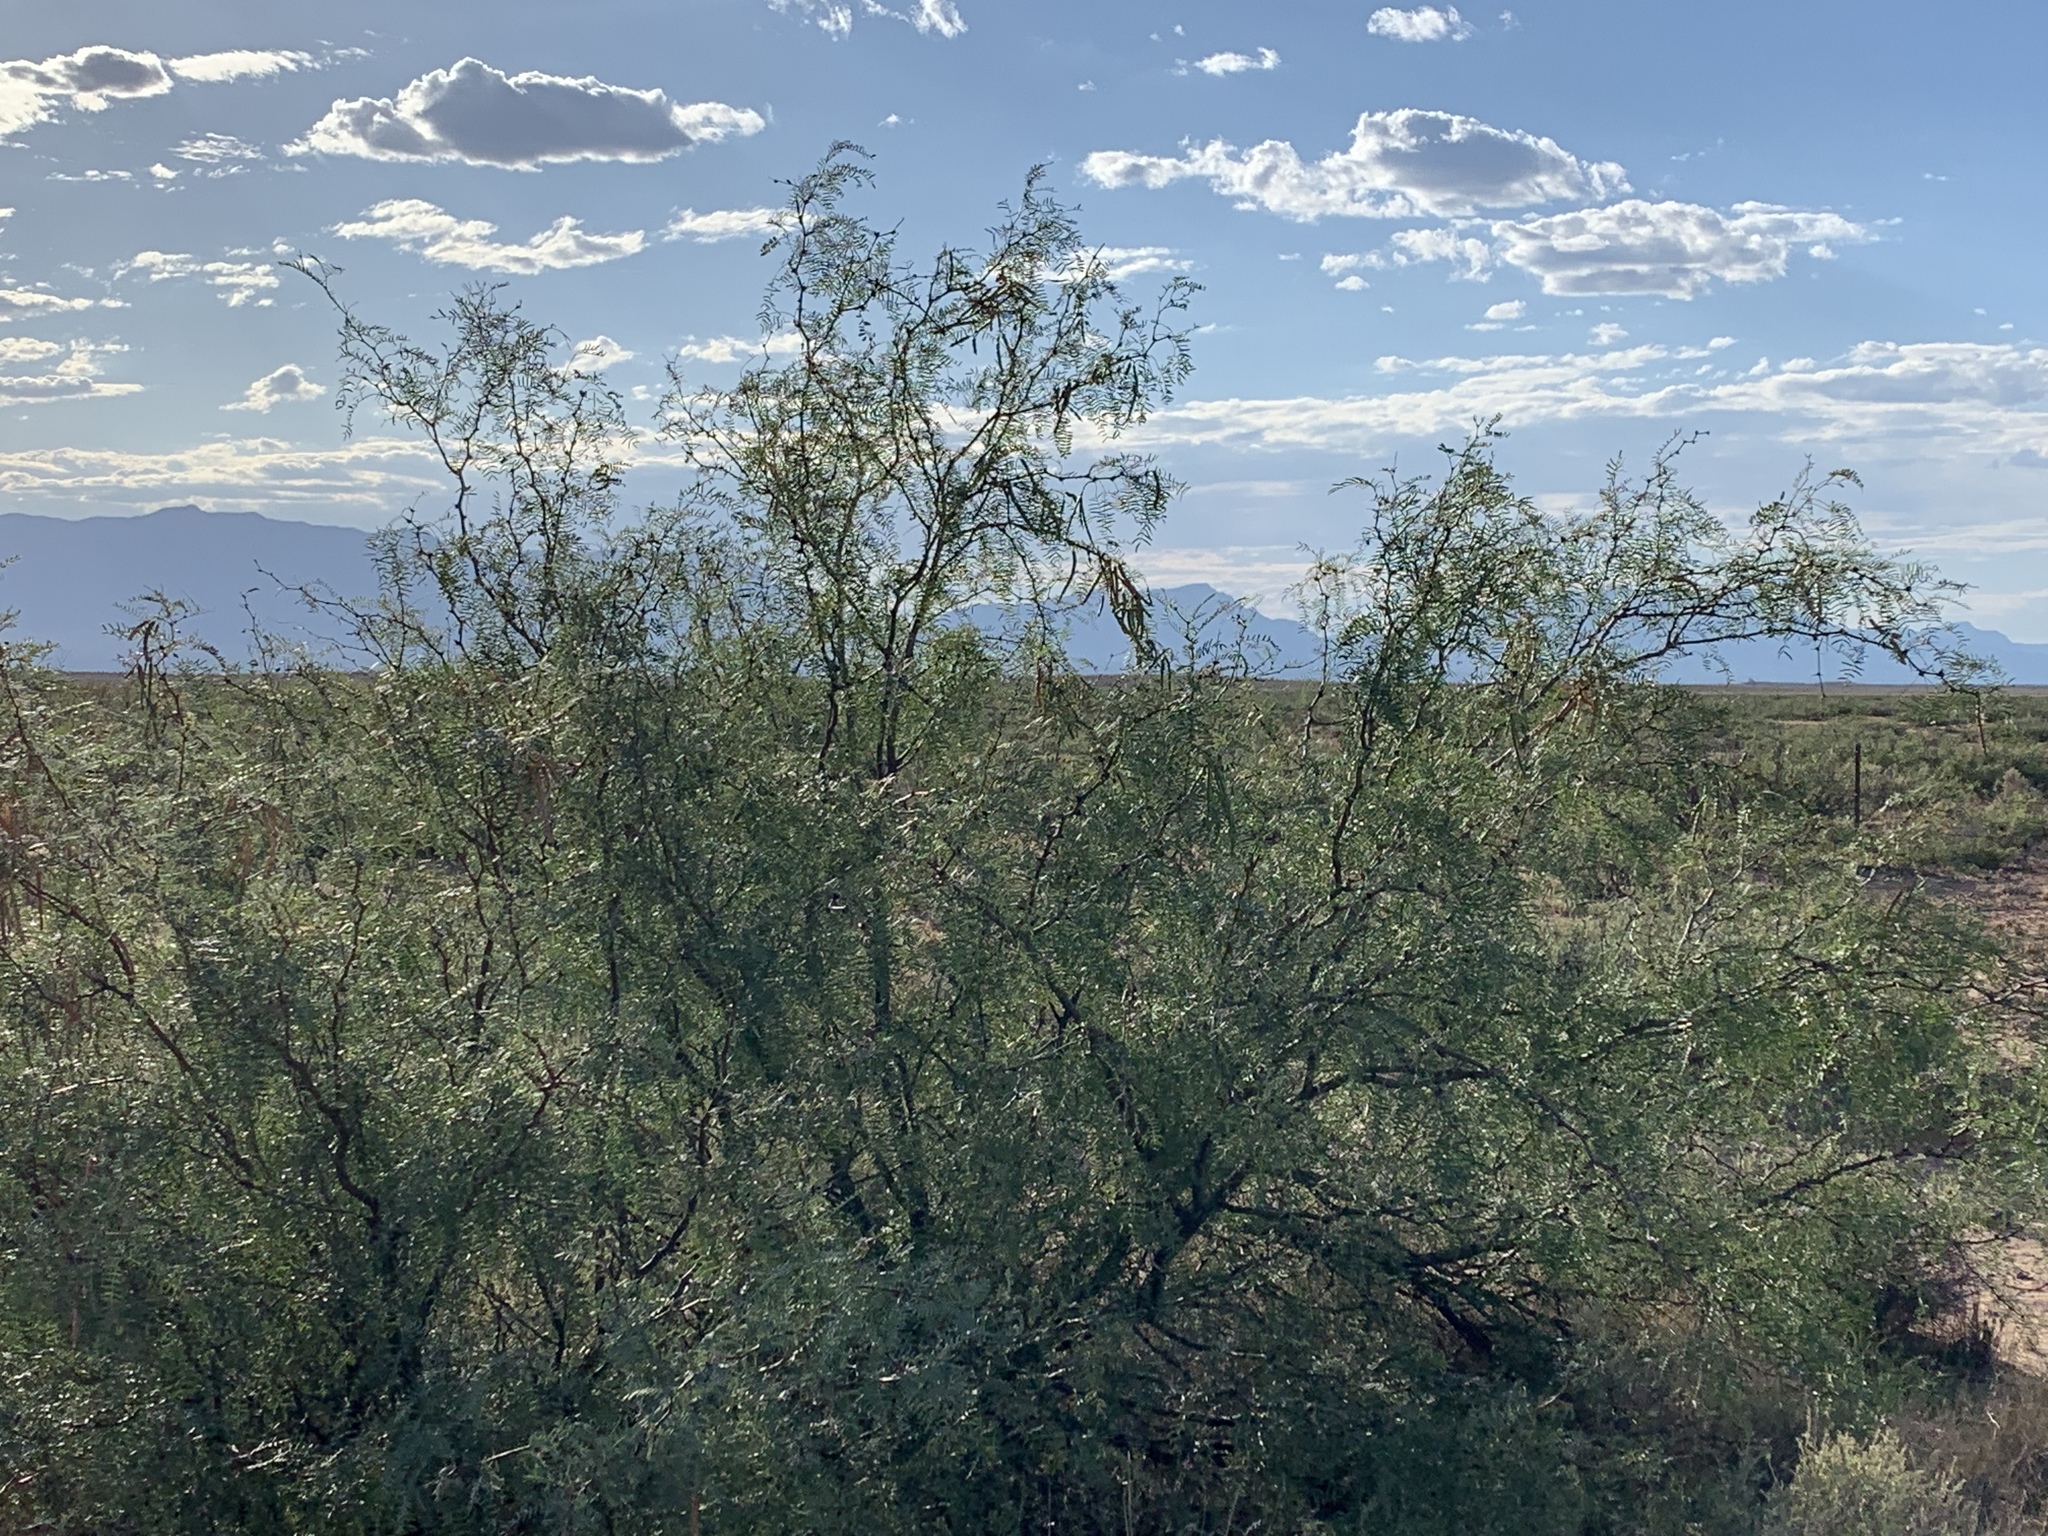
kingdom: Plantae
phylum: Tracheophyta
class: Magnoliopsida
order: Fabales
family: Fabaceae
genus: Prosopis
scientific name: Prosopis glandulosa
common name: Honey mesquite
